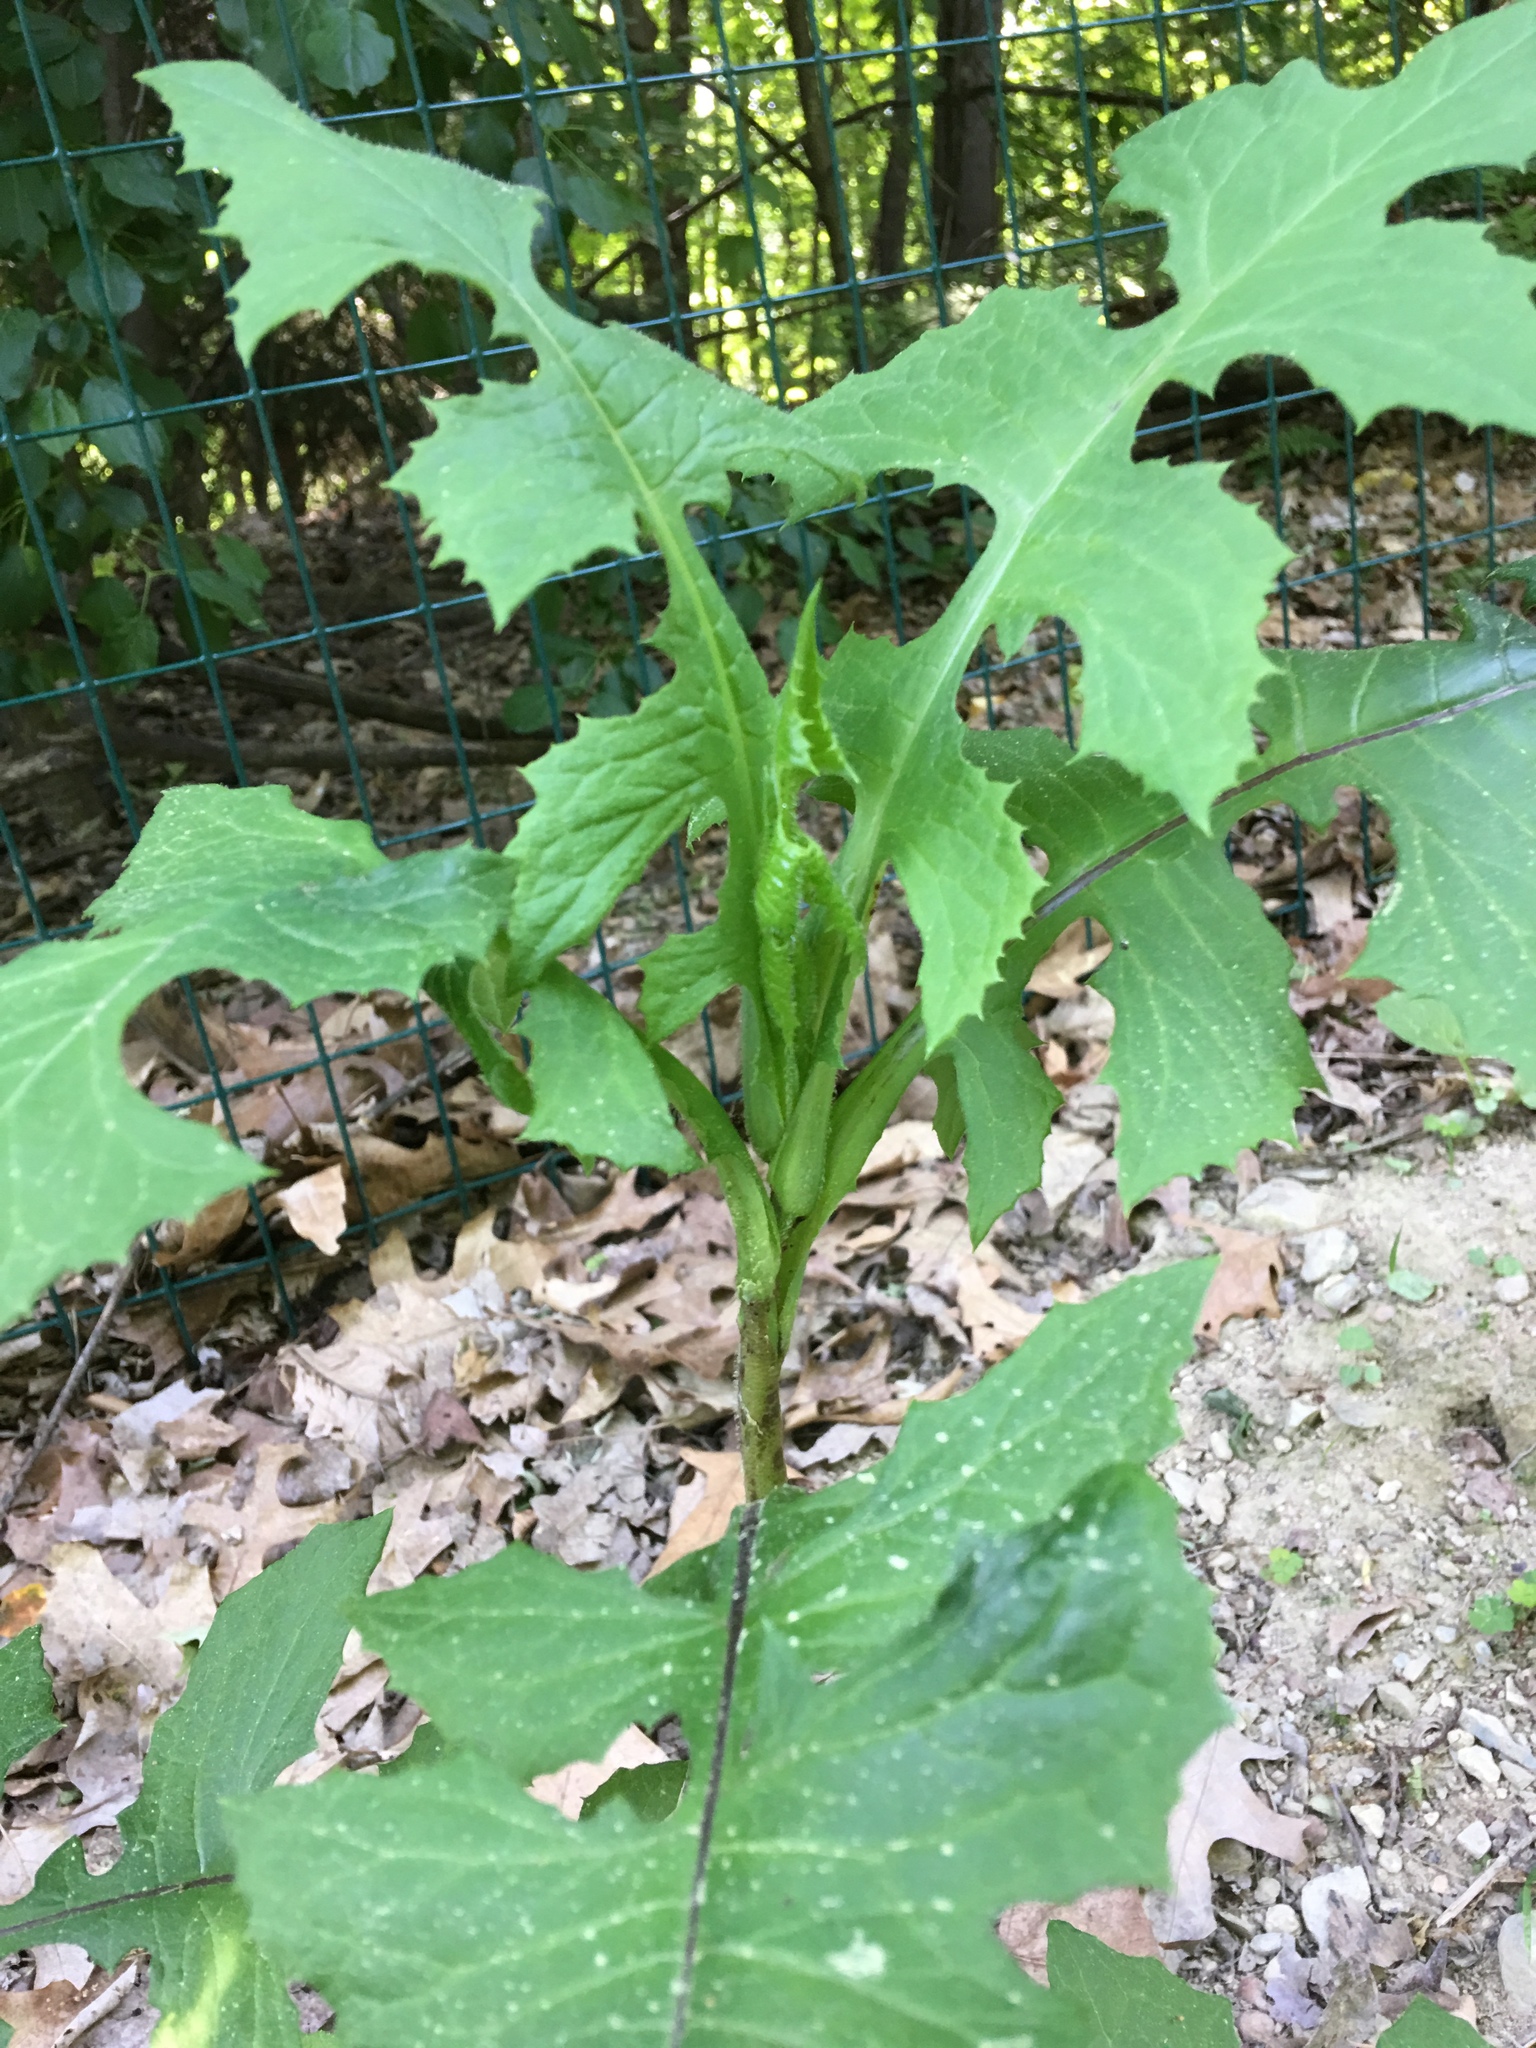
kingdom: Plantae
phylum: Tracheophyta
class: Magnoliopsida
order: Asterales
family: Asteraceae
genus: Lactuca
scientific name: Lactuca biennis
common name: Blue wood lettuce
